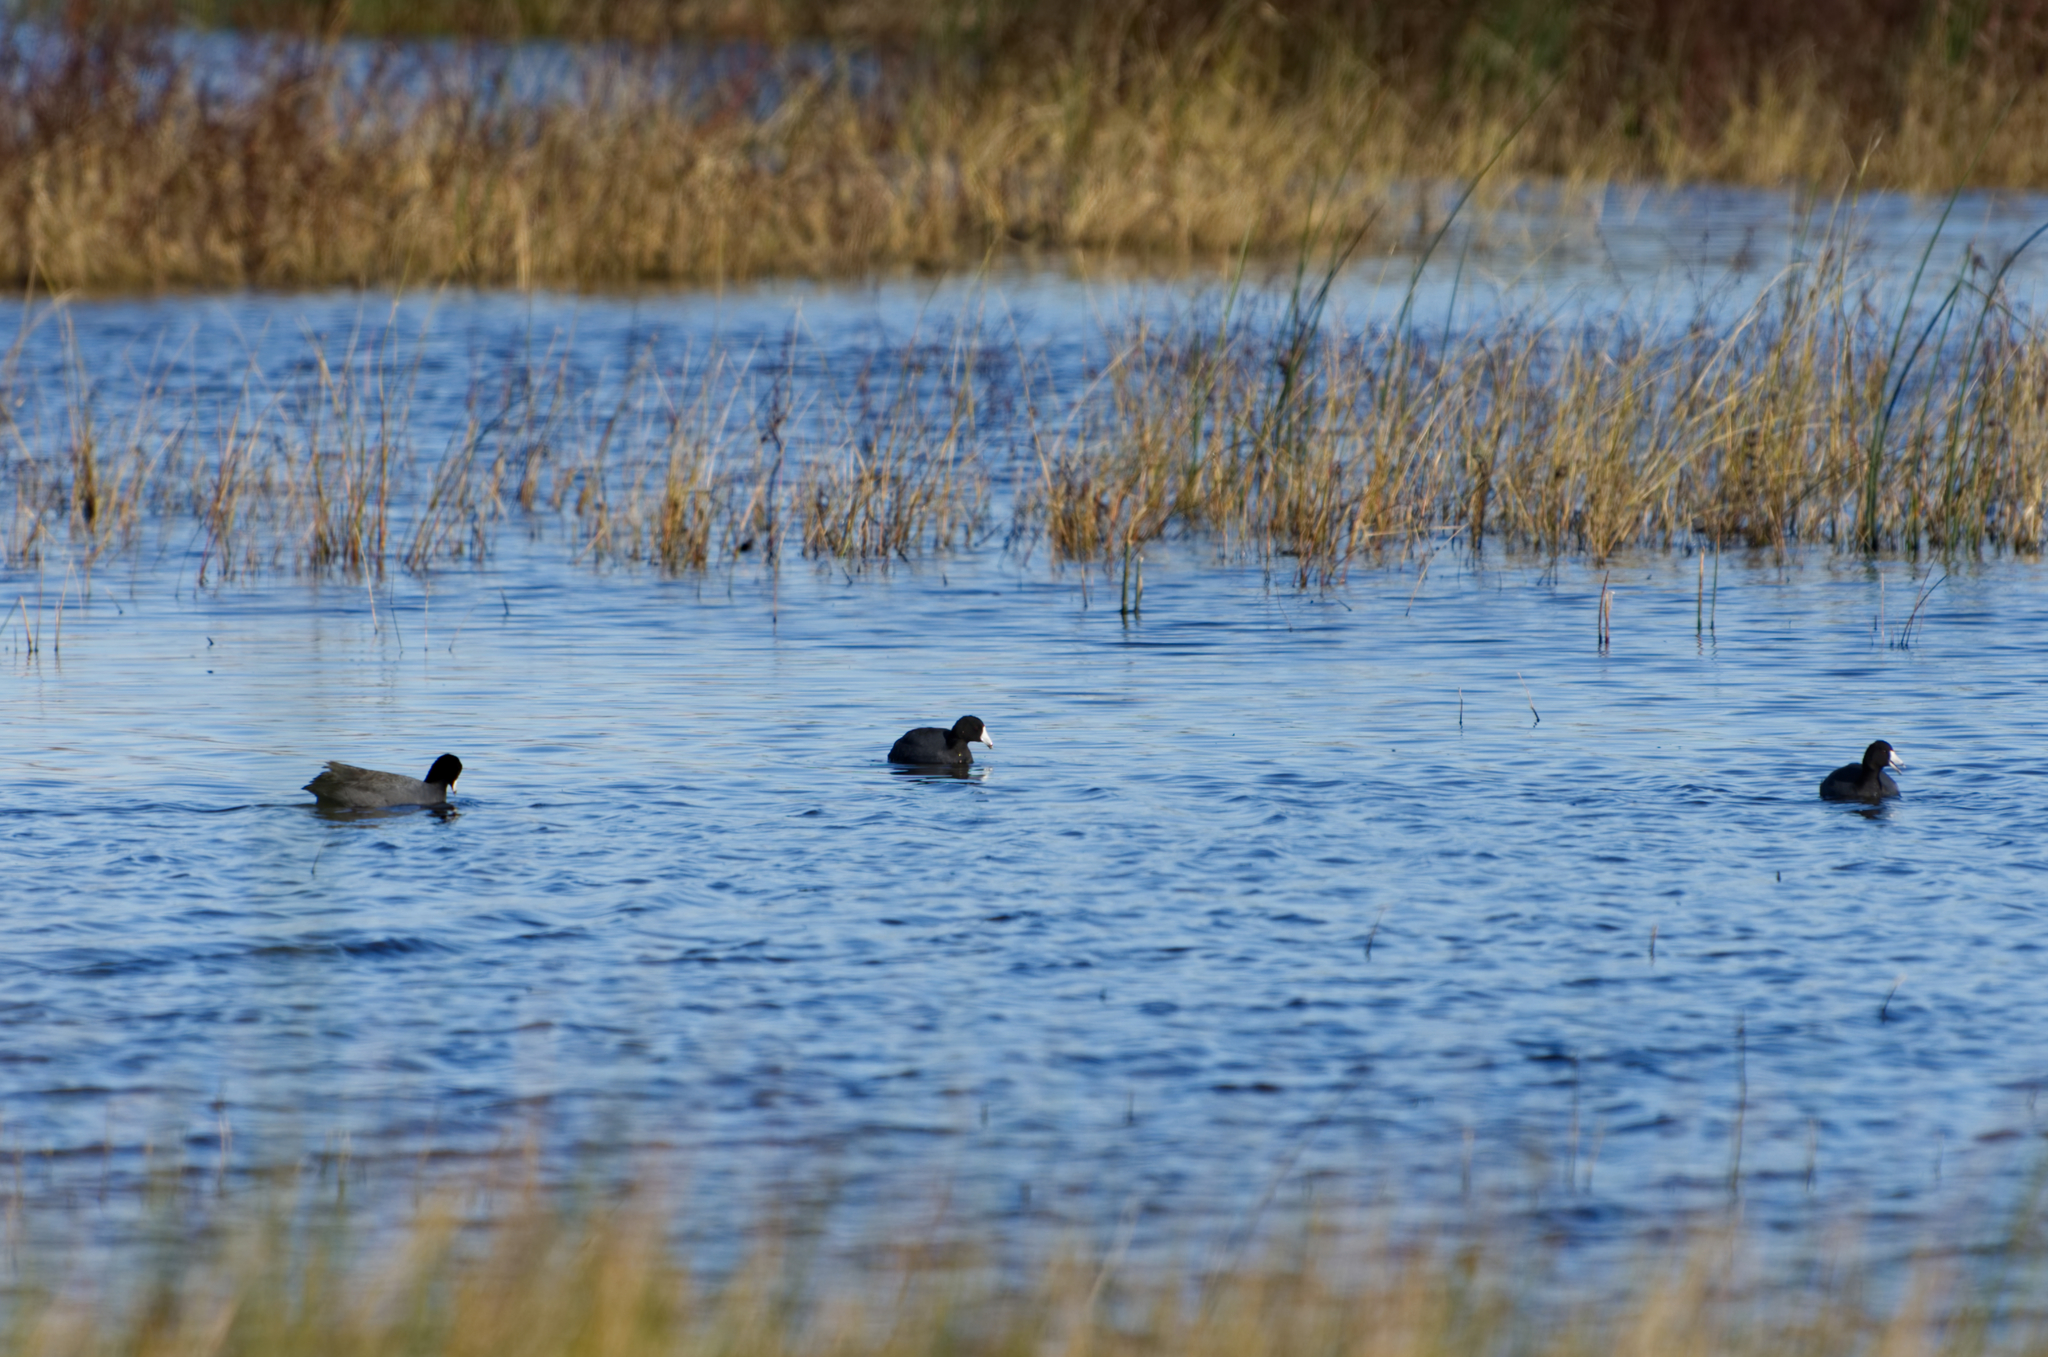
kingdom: Animalia
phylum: Chordata
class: Aves
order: Gruiformes
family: Rallidae
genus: Fulica
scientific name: Fulica americana
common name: American coot
